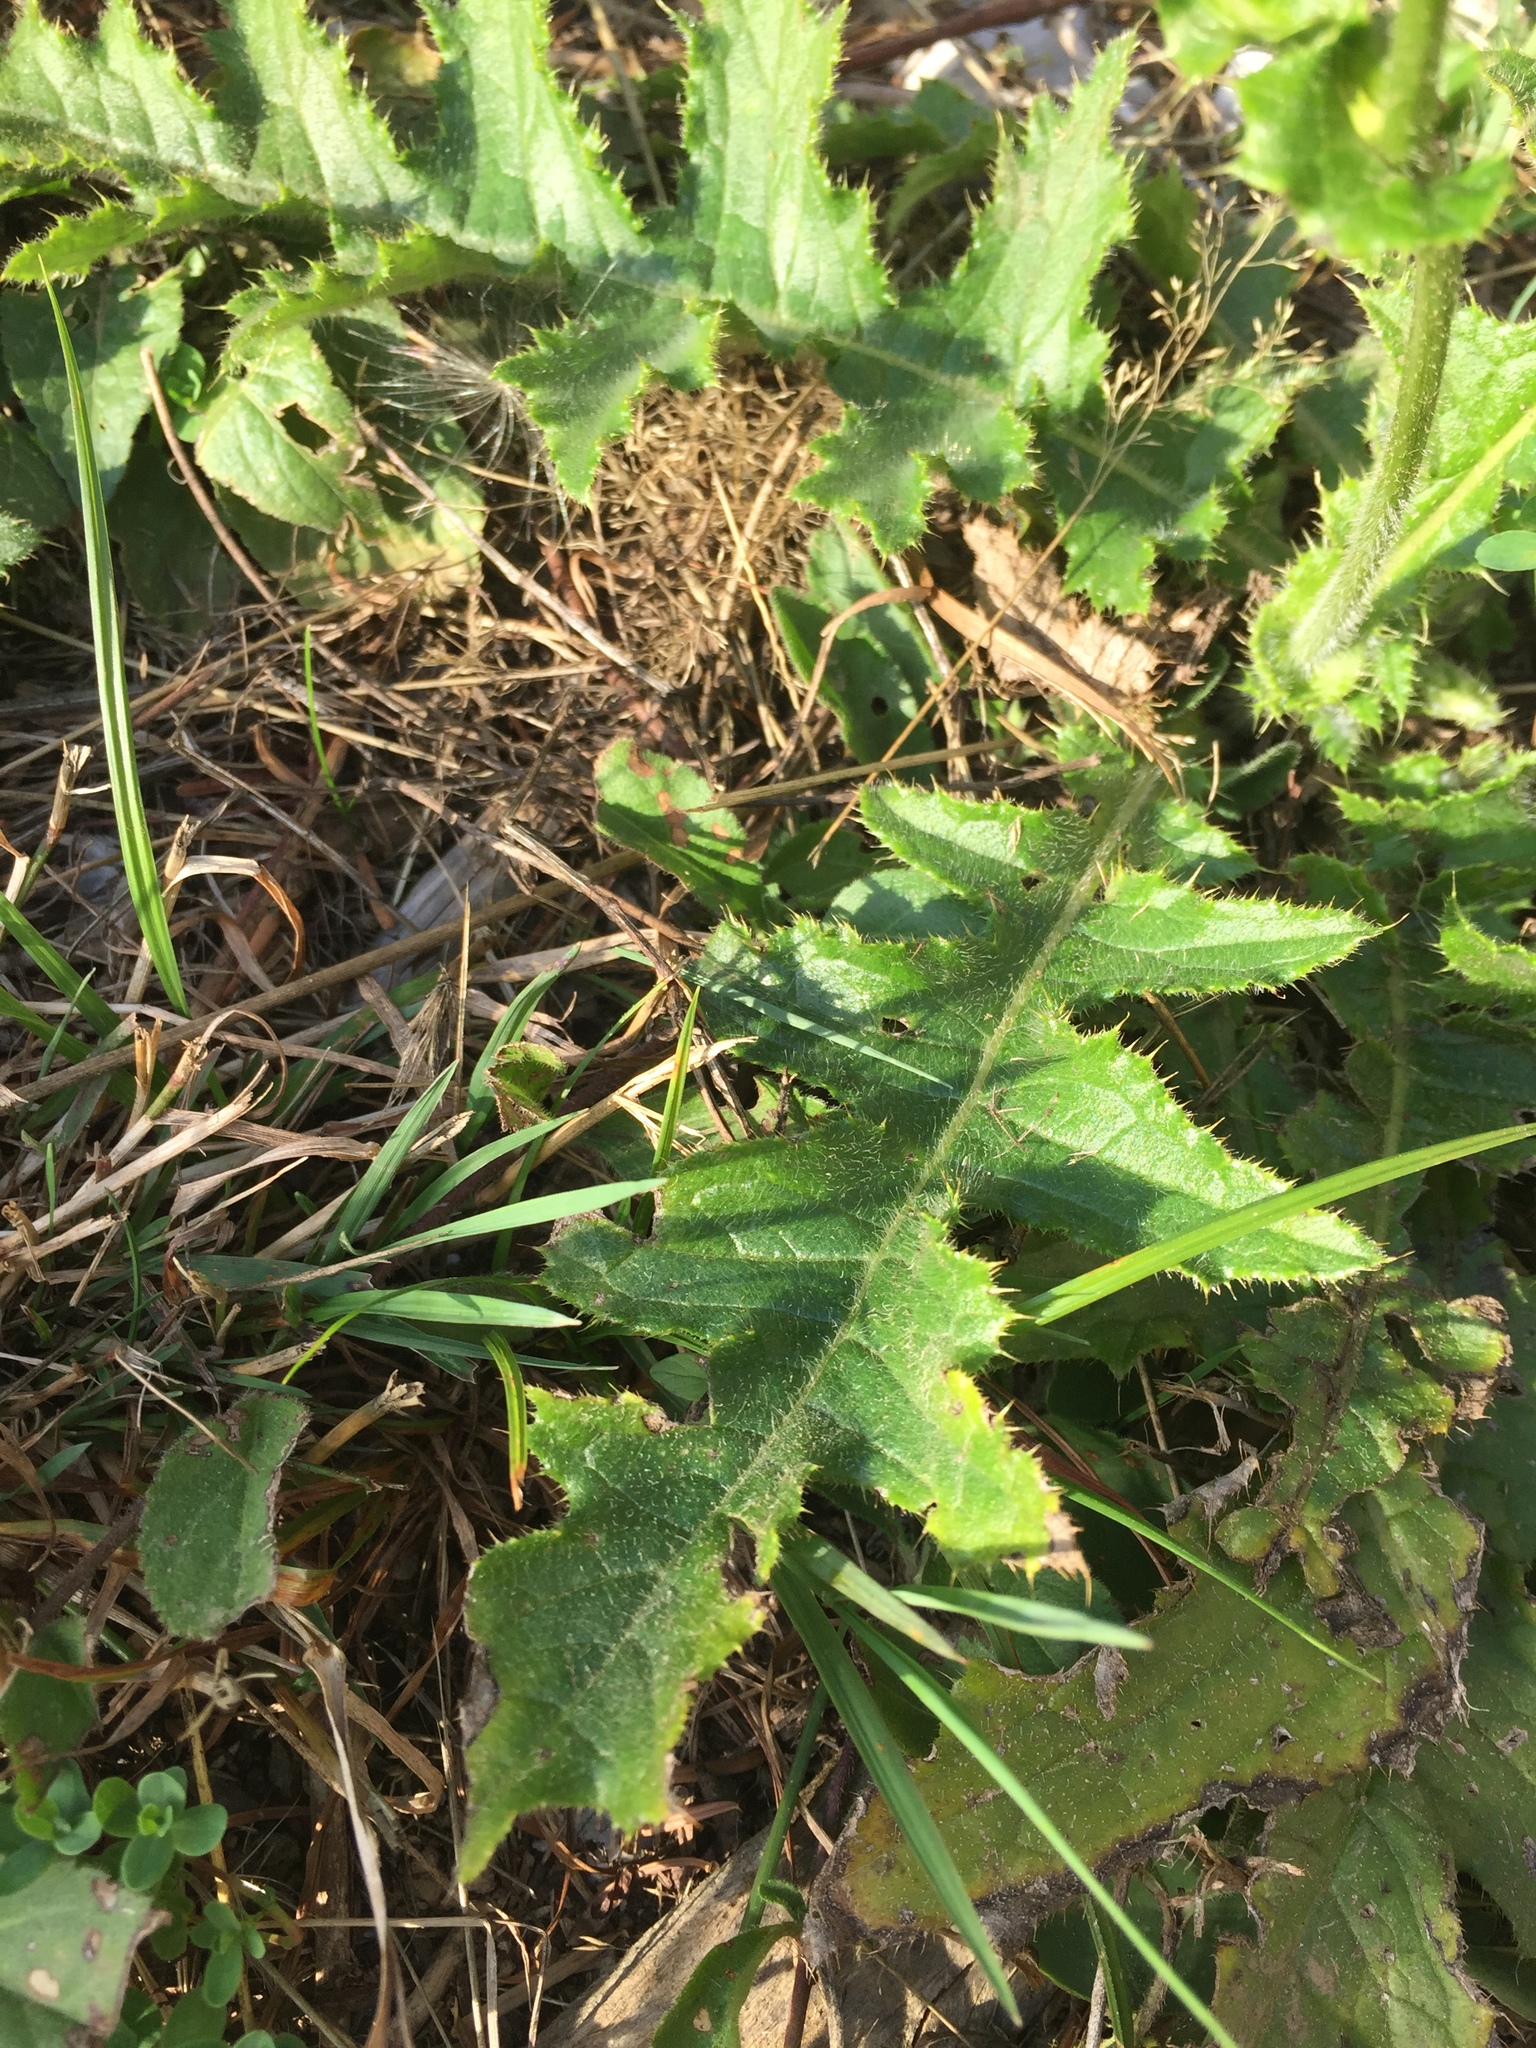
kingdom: Plantae
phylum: Tracheophyta
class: Magnoliopsida
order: Asterales
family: Asteraceae
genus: Cirsium
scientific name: Cirsium oleraceum
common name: Cabbage thistle
